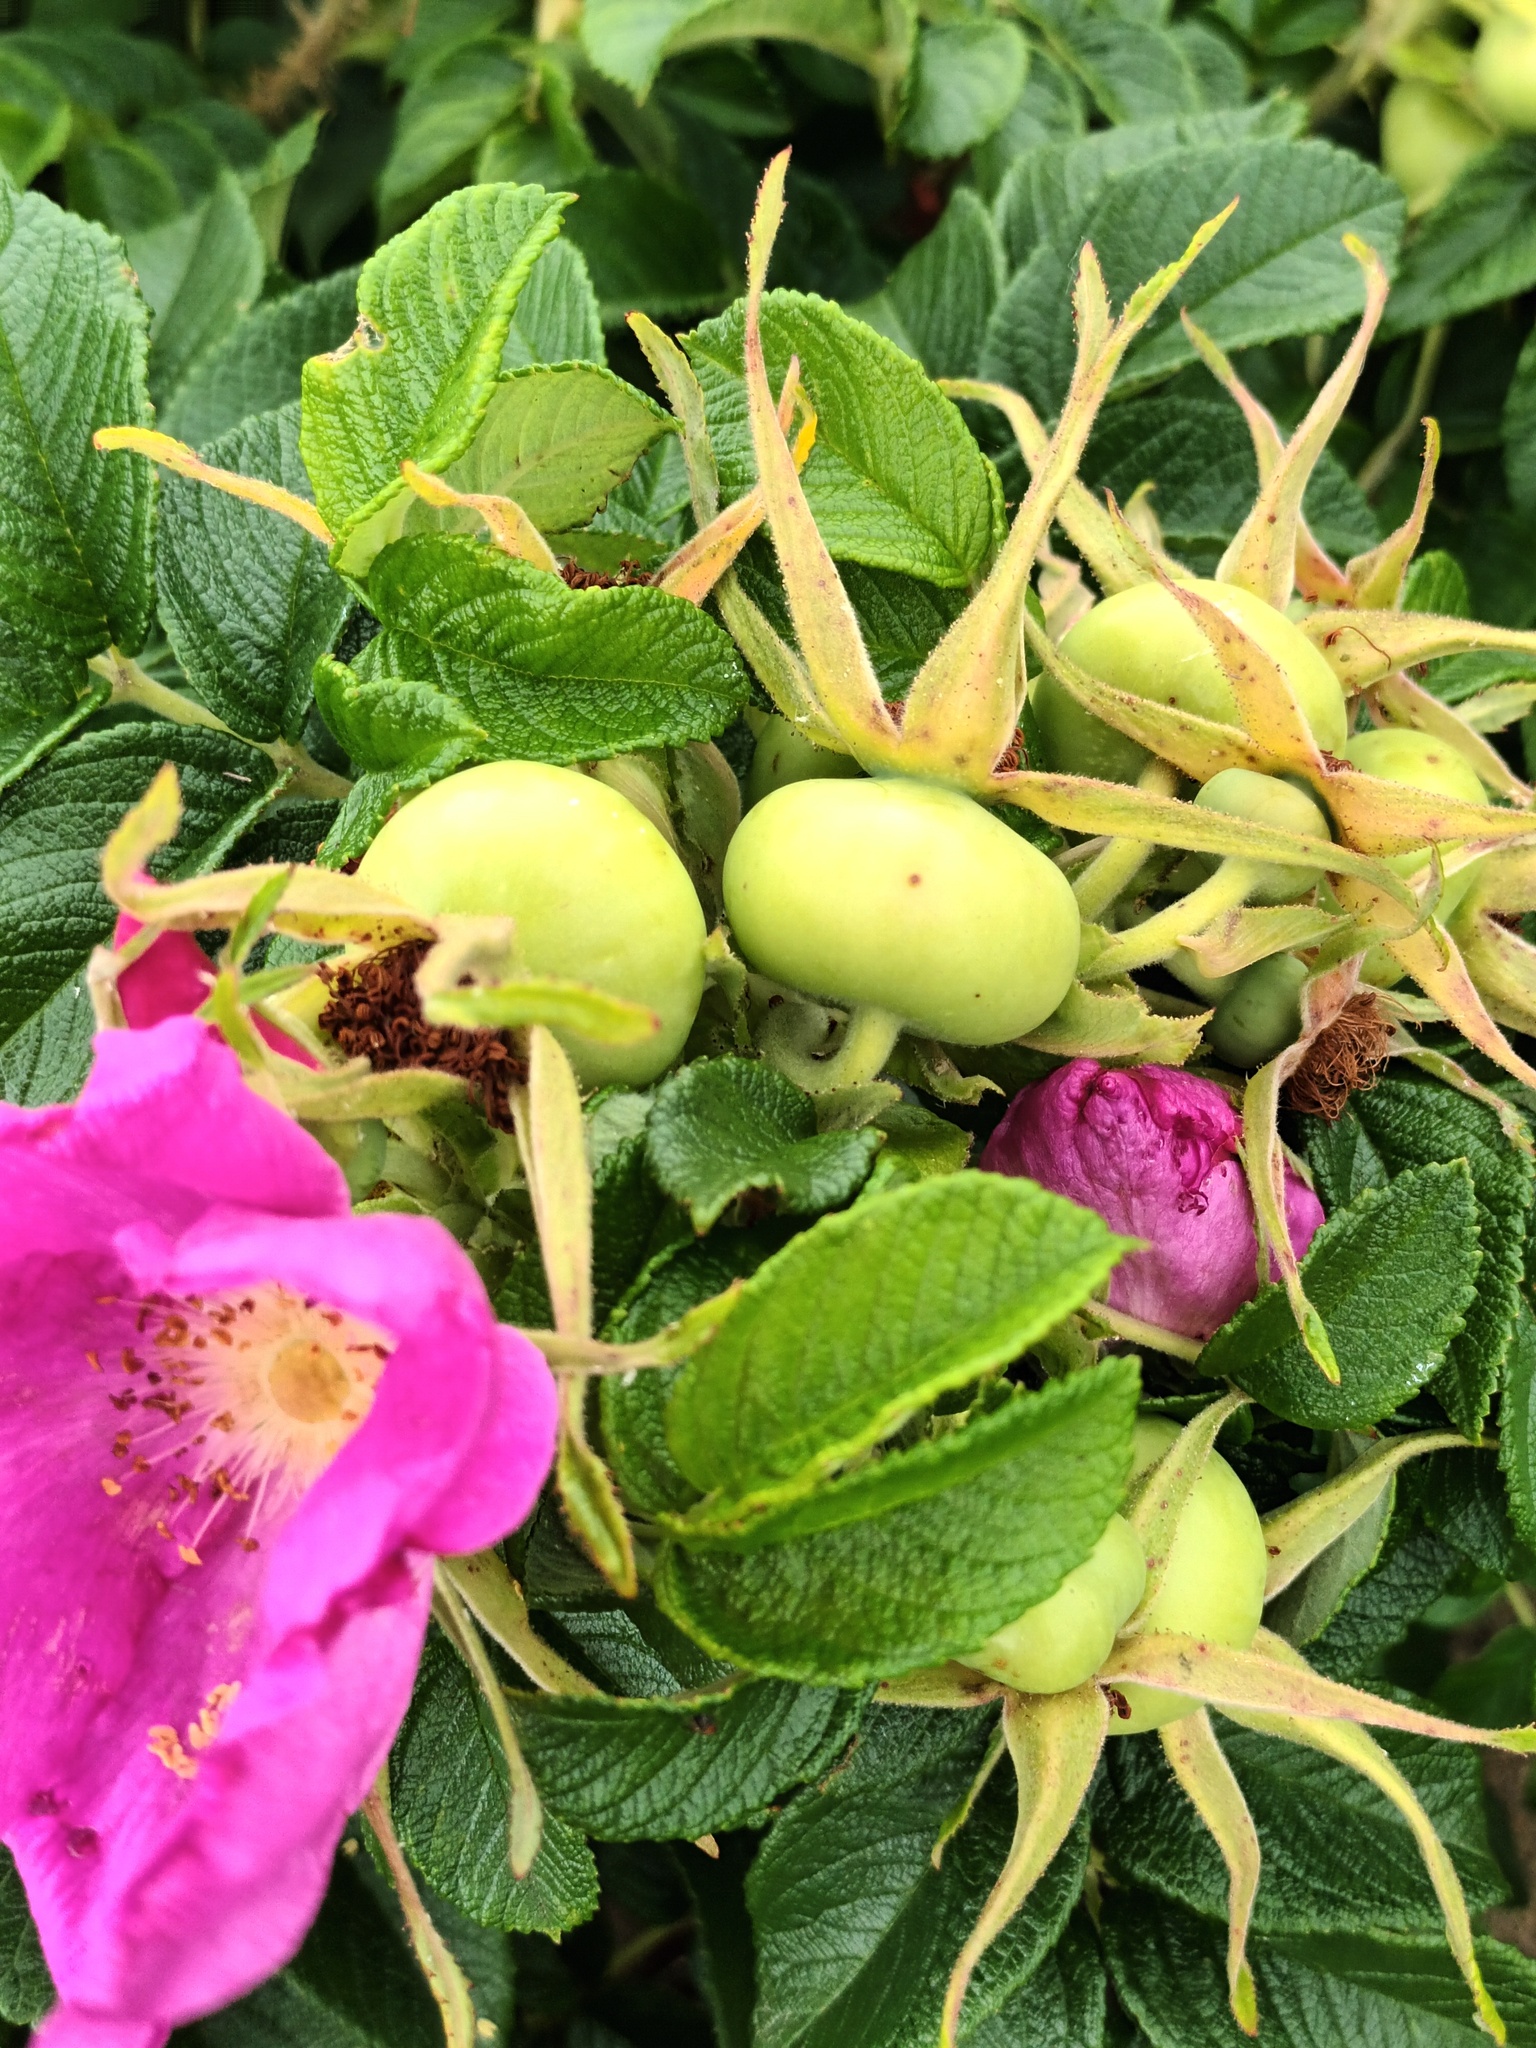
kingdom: Plantae
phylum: Tracheophyta
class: Magnoliopsida
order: Rosales
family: Rosaceae
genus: Rosa
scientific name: Rosa rugosa
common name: Japanese rose
